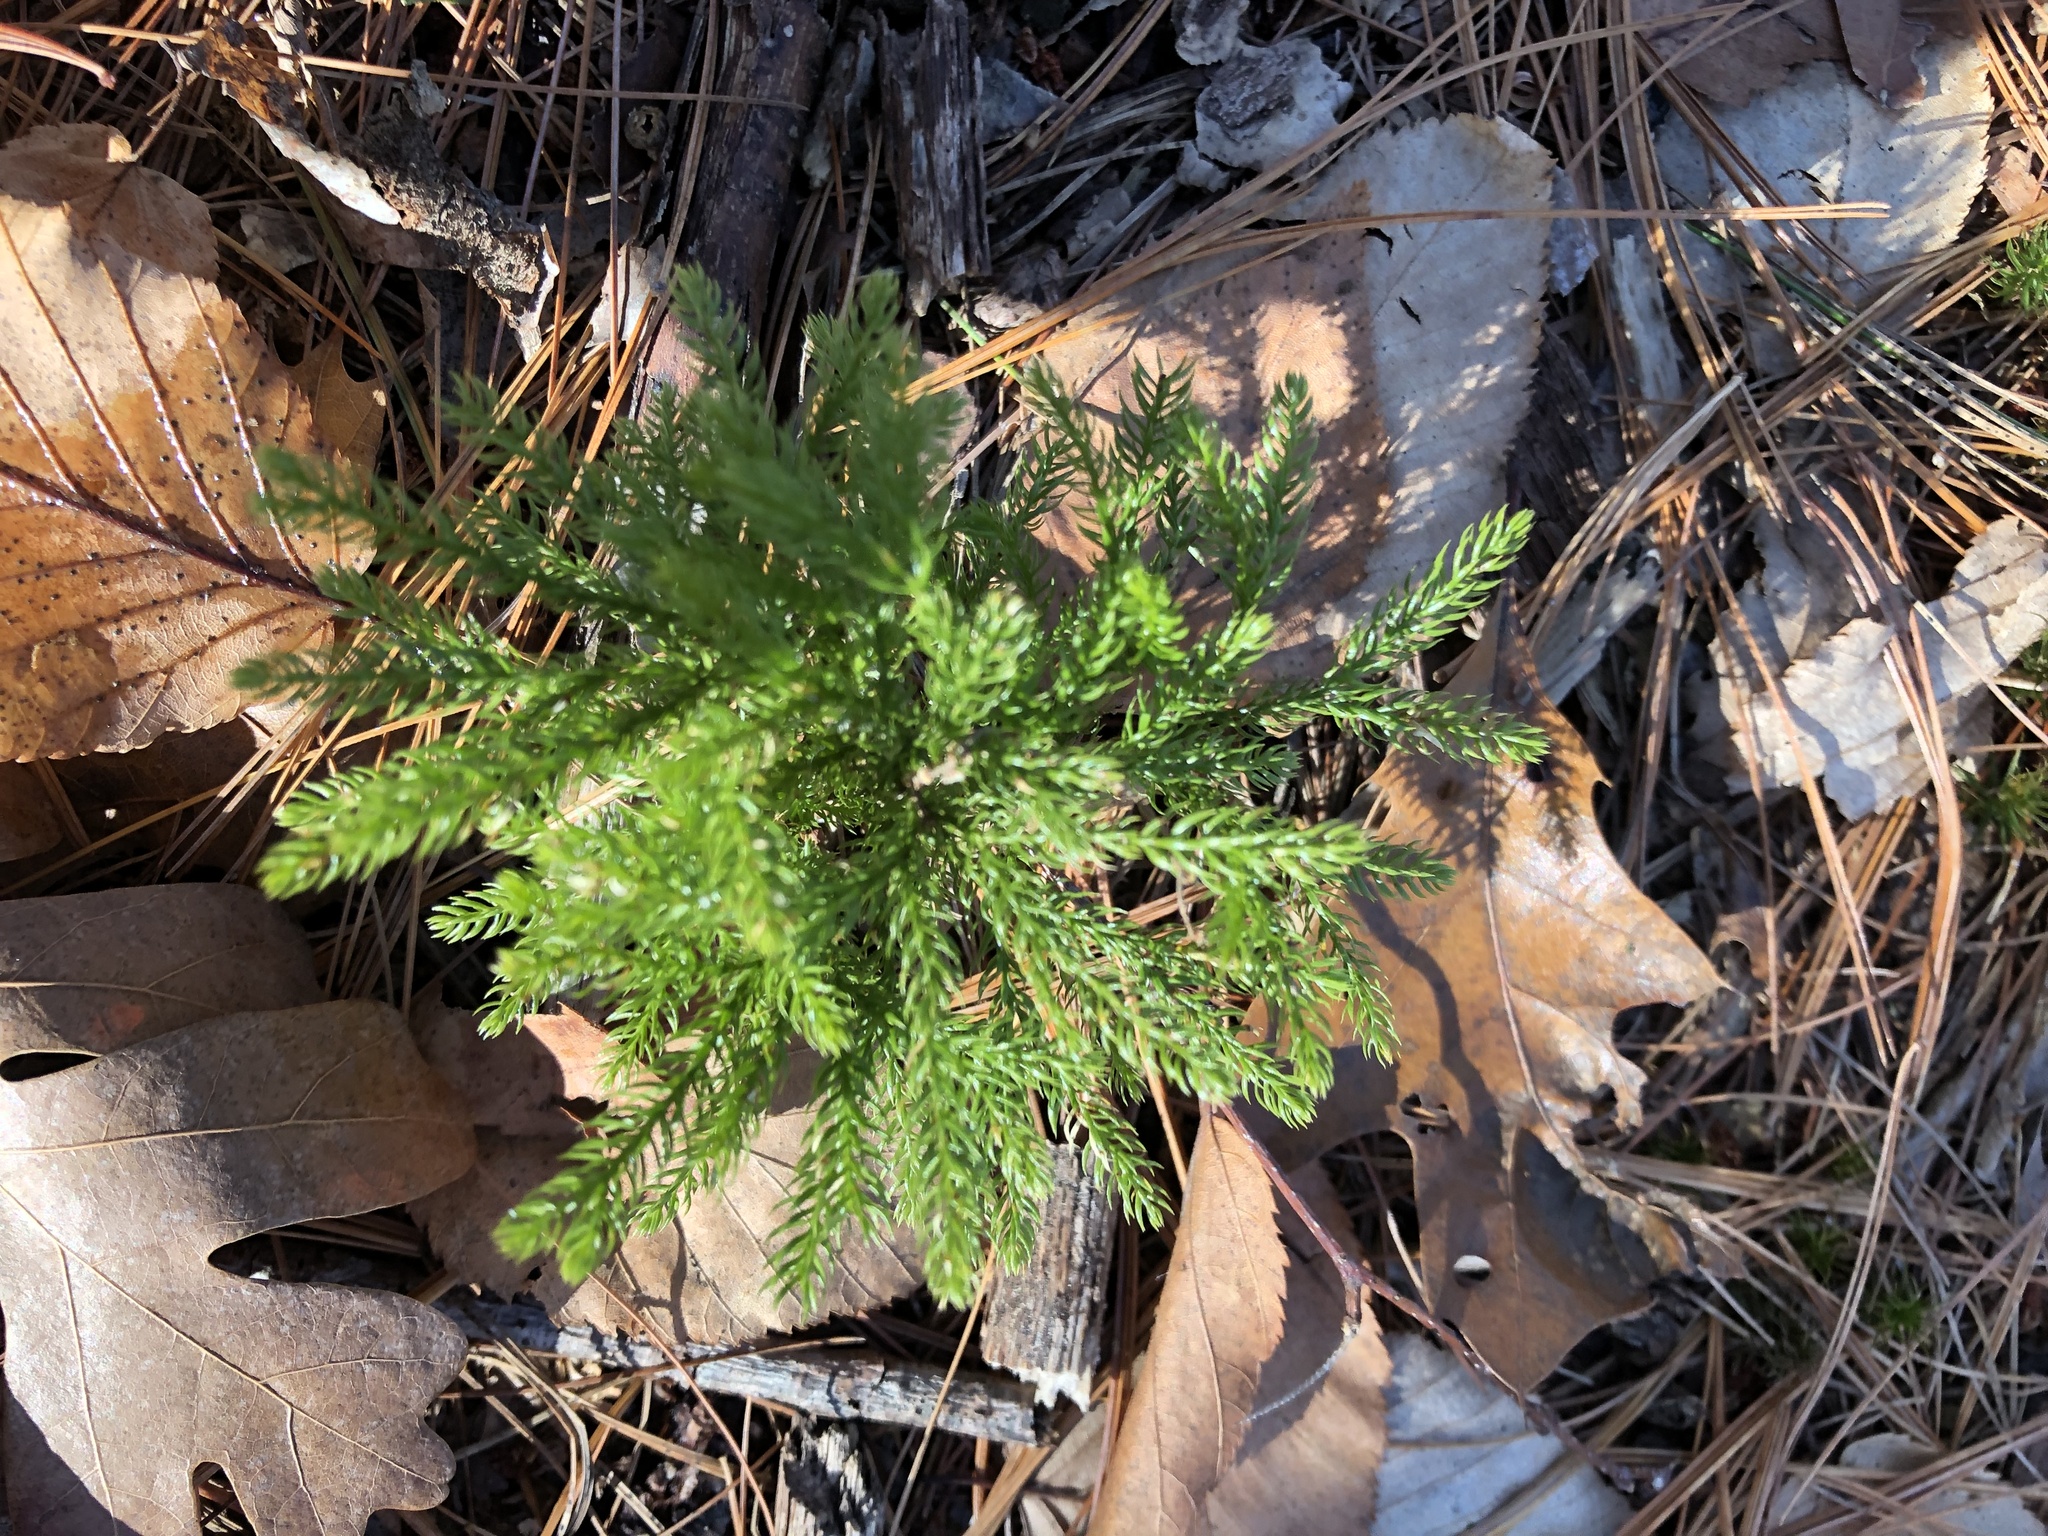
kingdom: Plantae
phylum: Tracheophyta
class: Lycopodiopsida
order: Lycopodiales
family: Lycopodiaceae
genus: Dendrolycopodium
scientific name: Dendrolycopodium hickeyi
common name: Hickey's clubmoss
